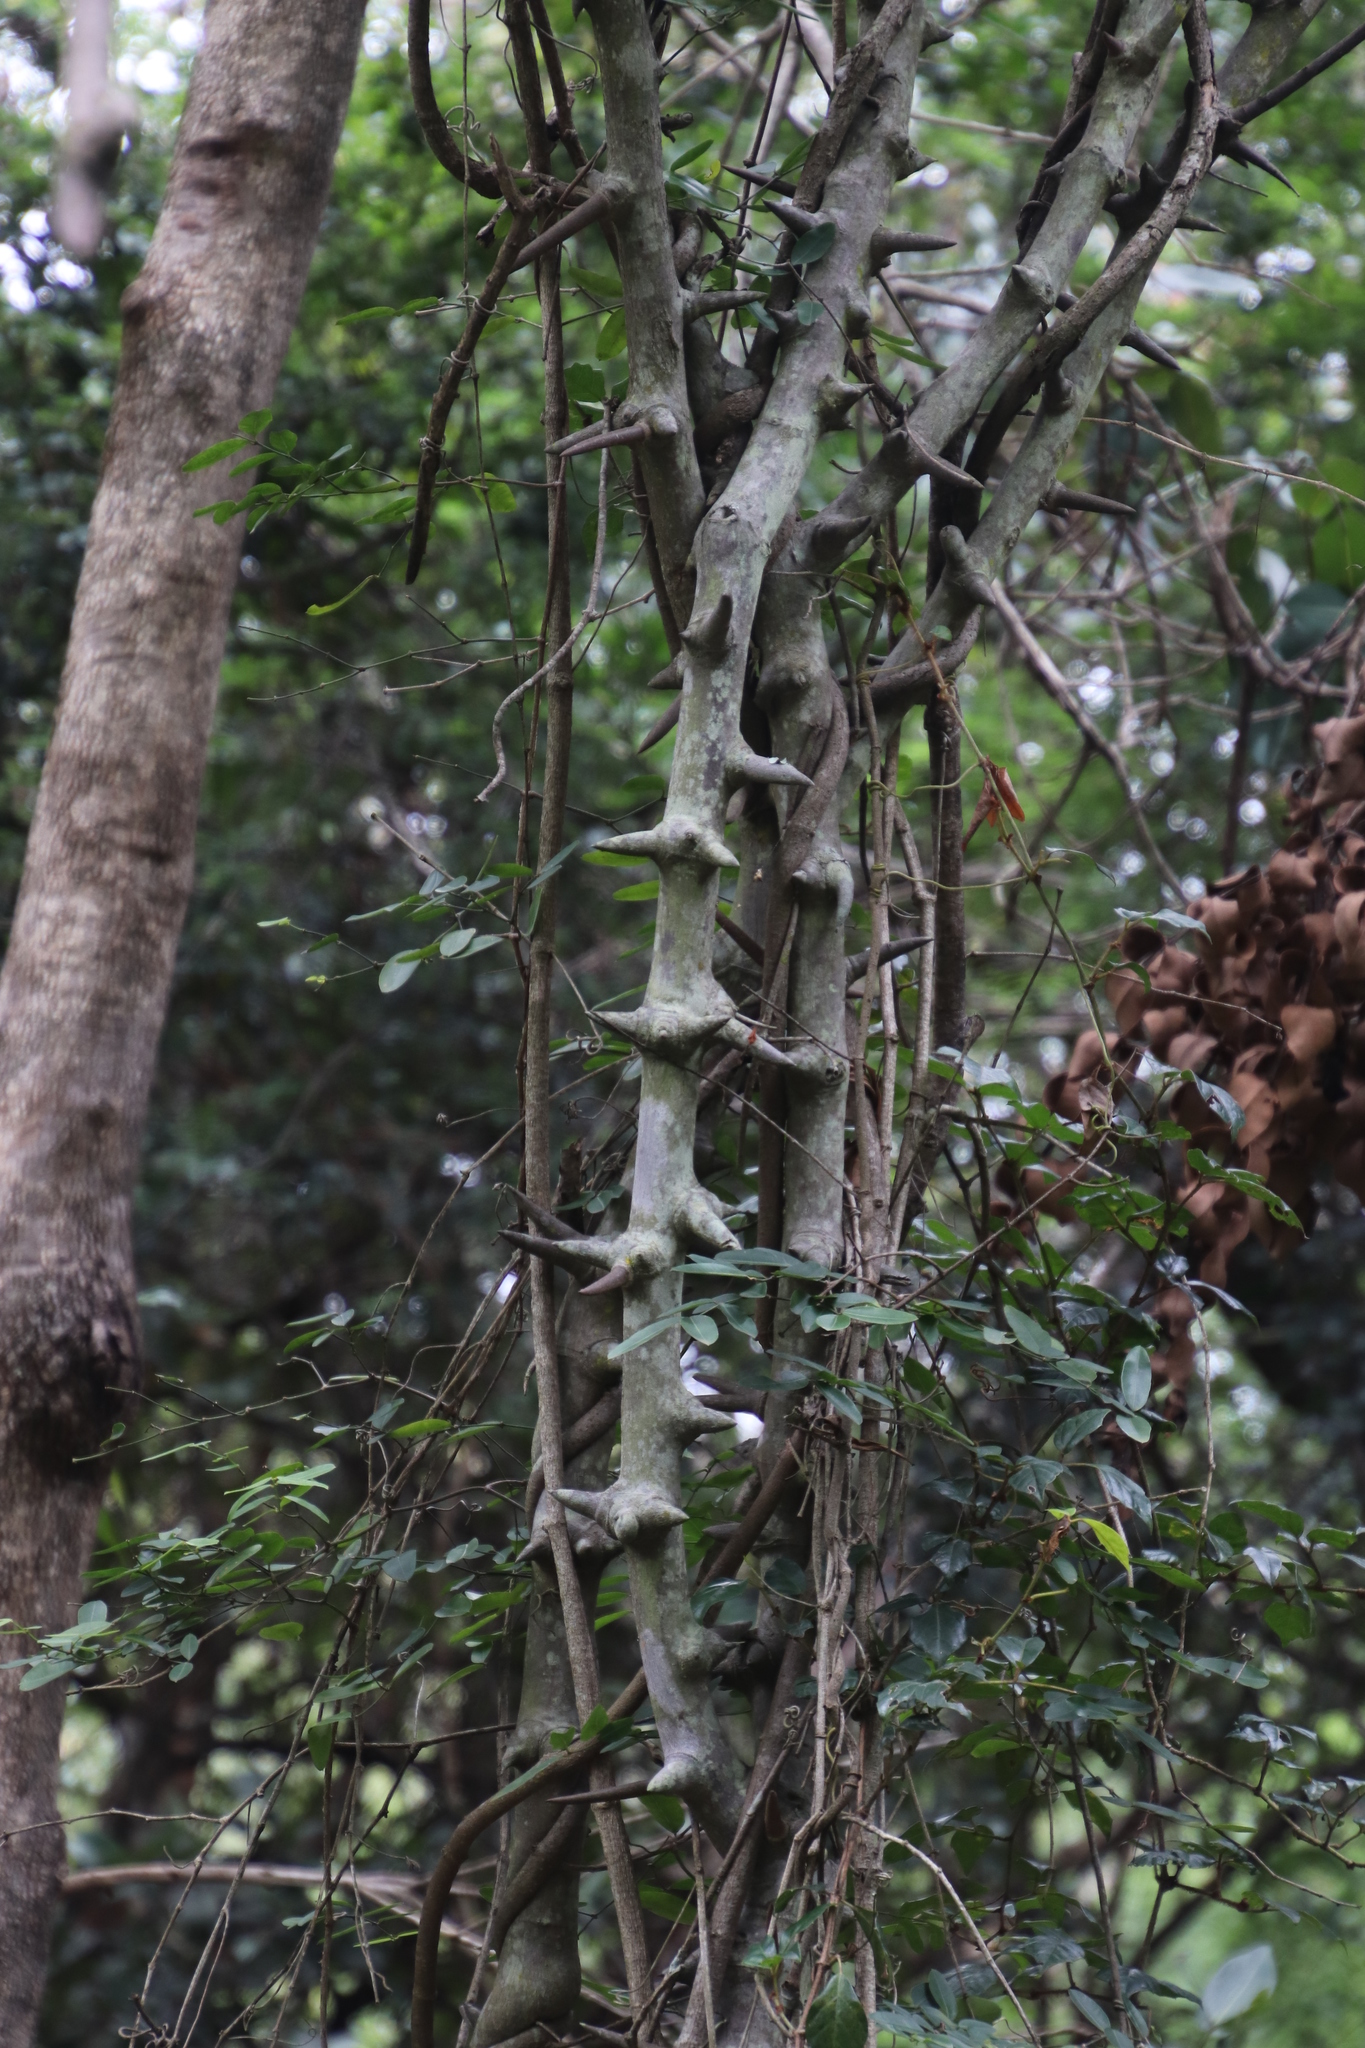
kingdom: Plantae
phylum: Tracheophyta
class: Magnoliopsida
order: Fabales
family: Fabaceae
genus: Dalbergia
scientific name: Dalbergia armata
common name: Hluhluwe climber
